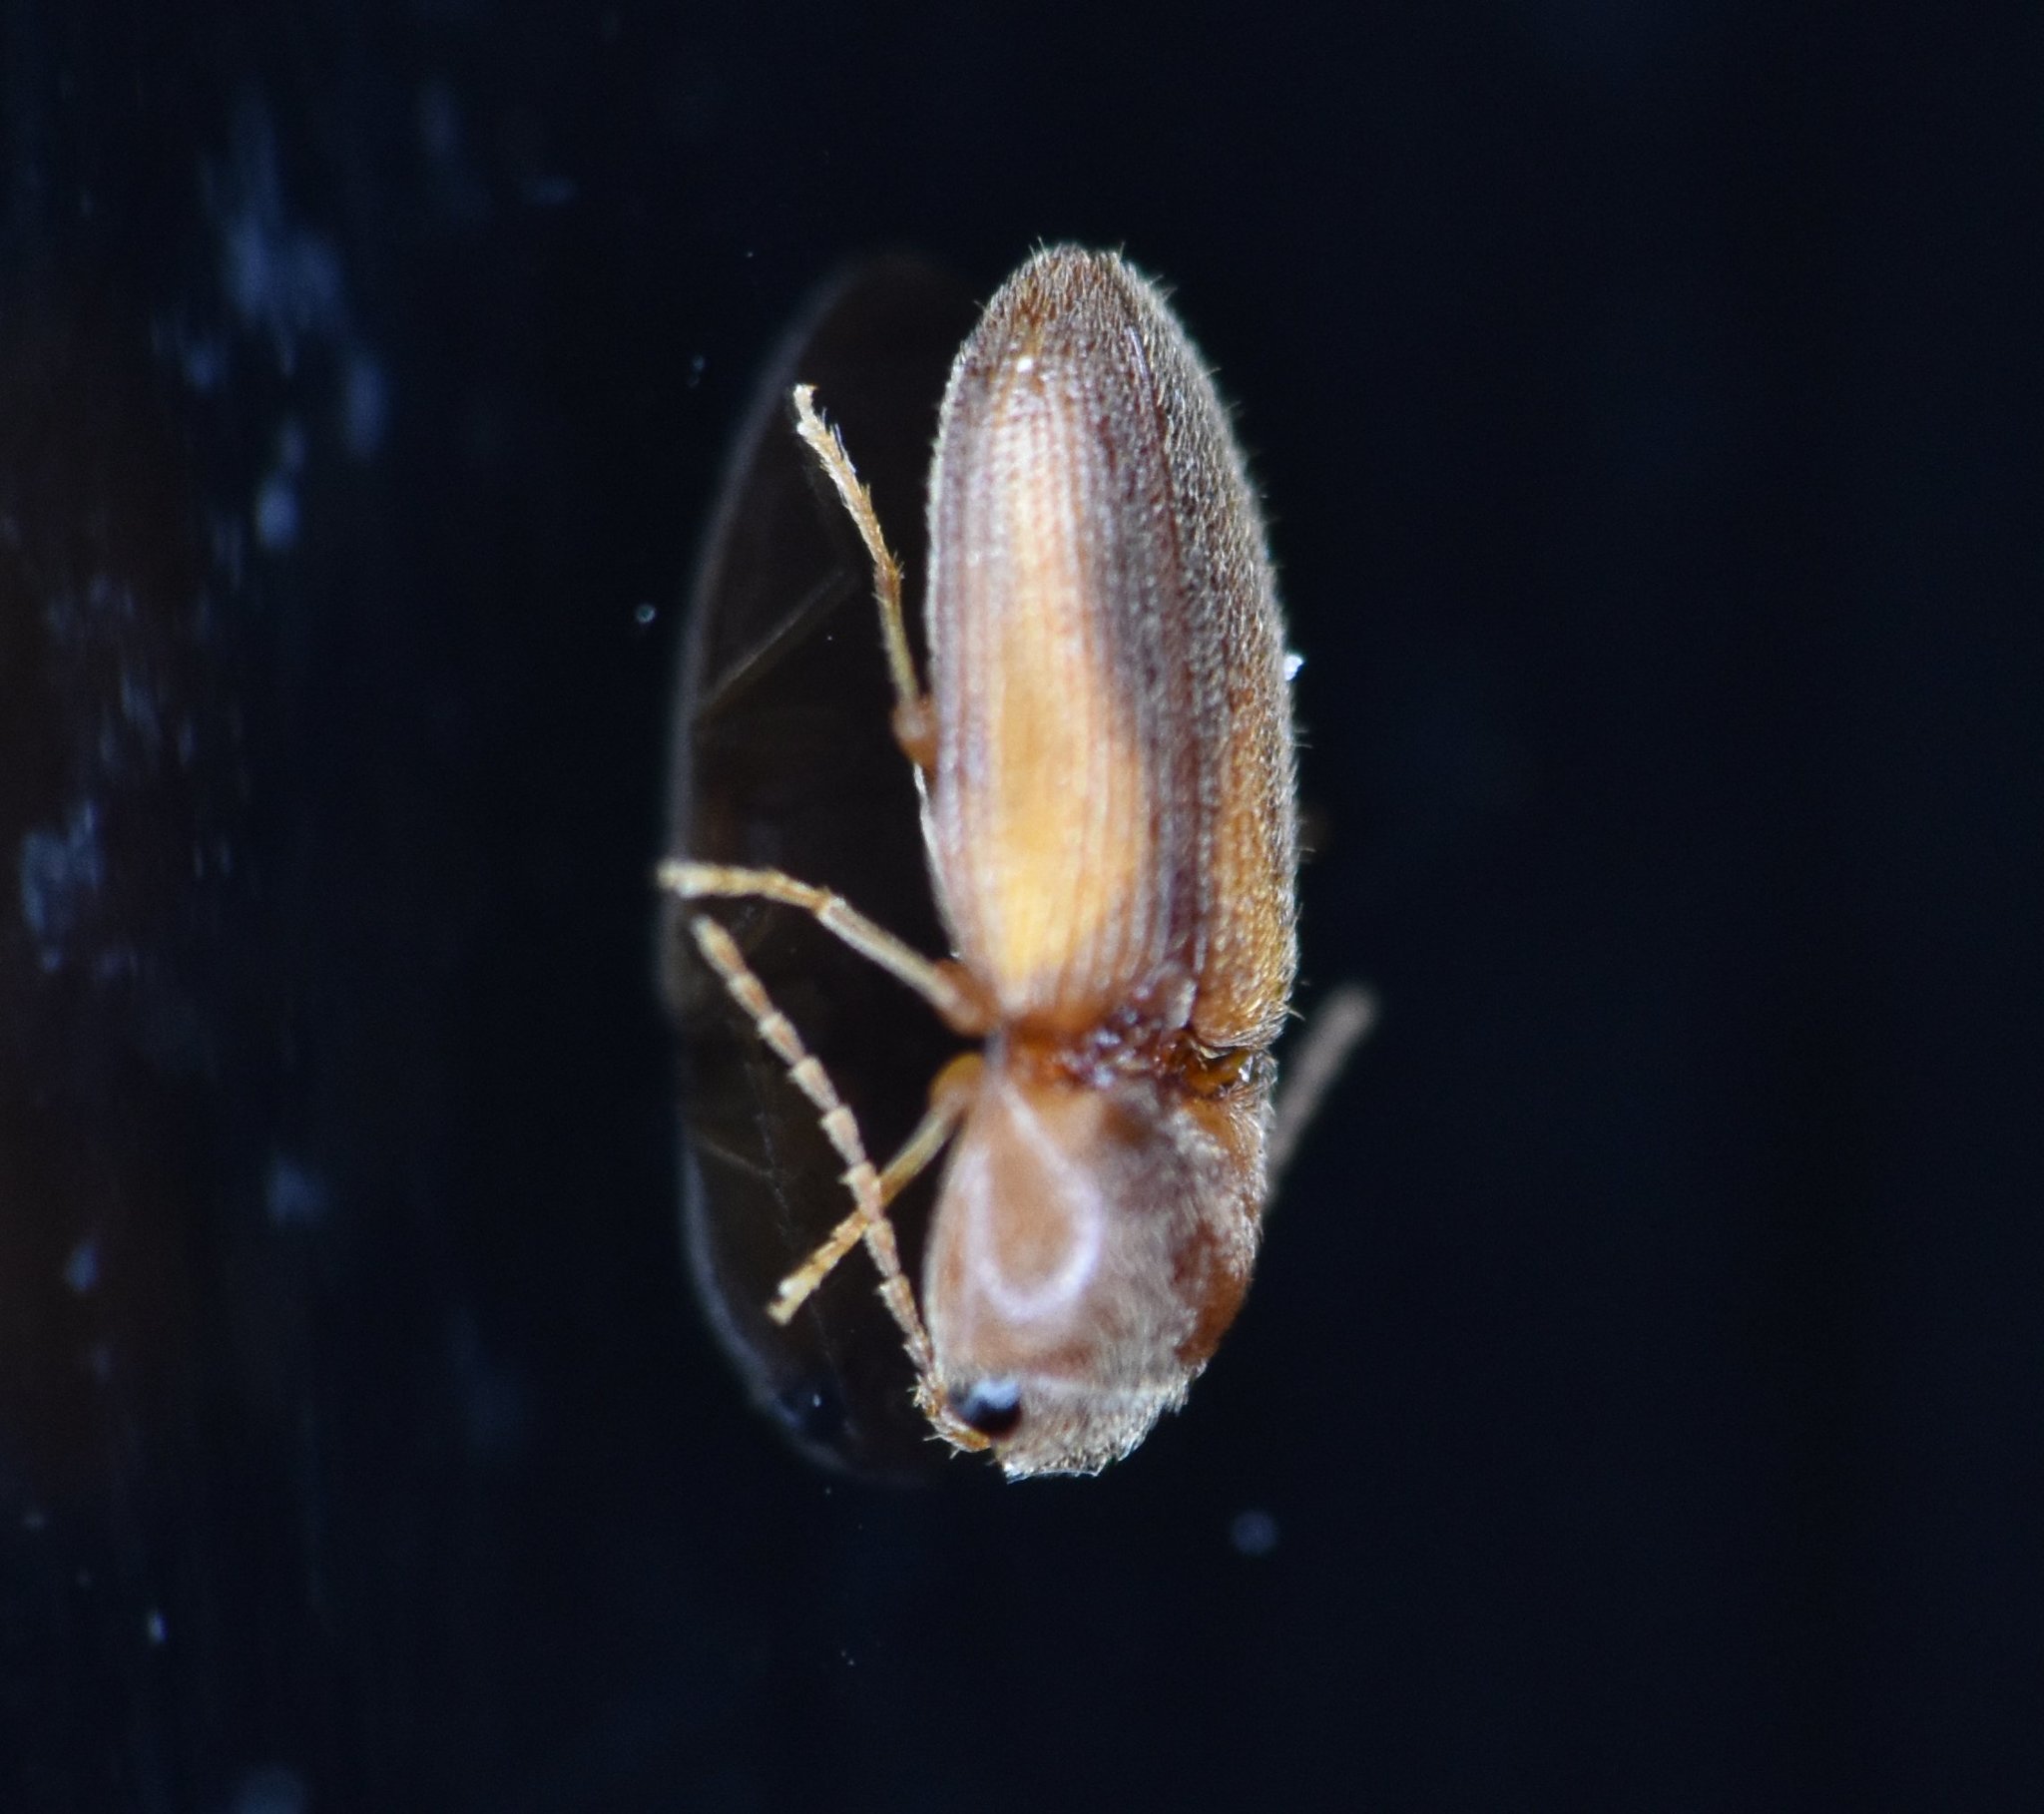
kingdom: Animalia
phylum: Arthropoda
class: Insecta
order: Coleoptera
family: Elateridae
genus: Esthesopus
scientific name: Esthesopus
